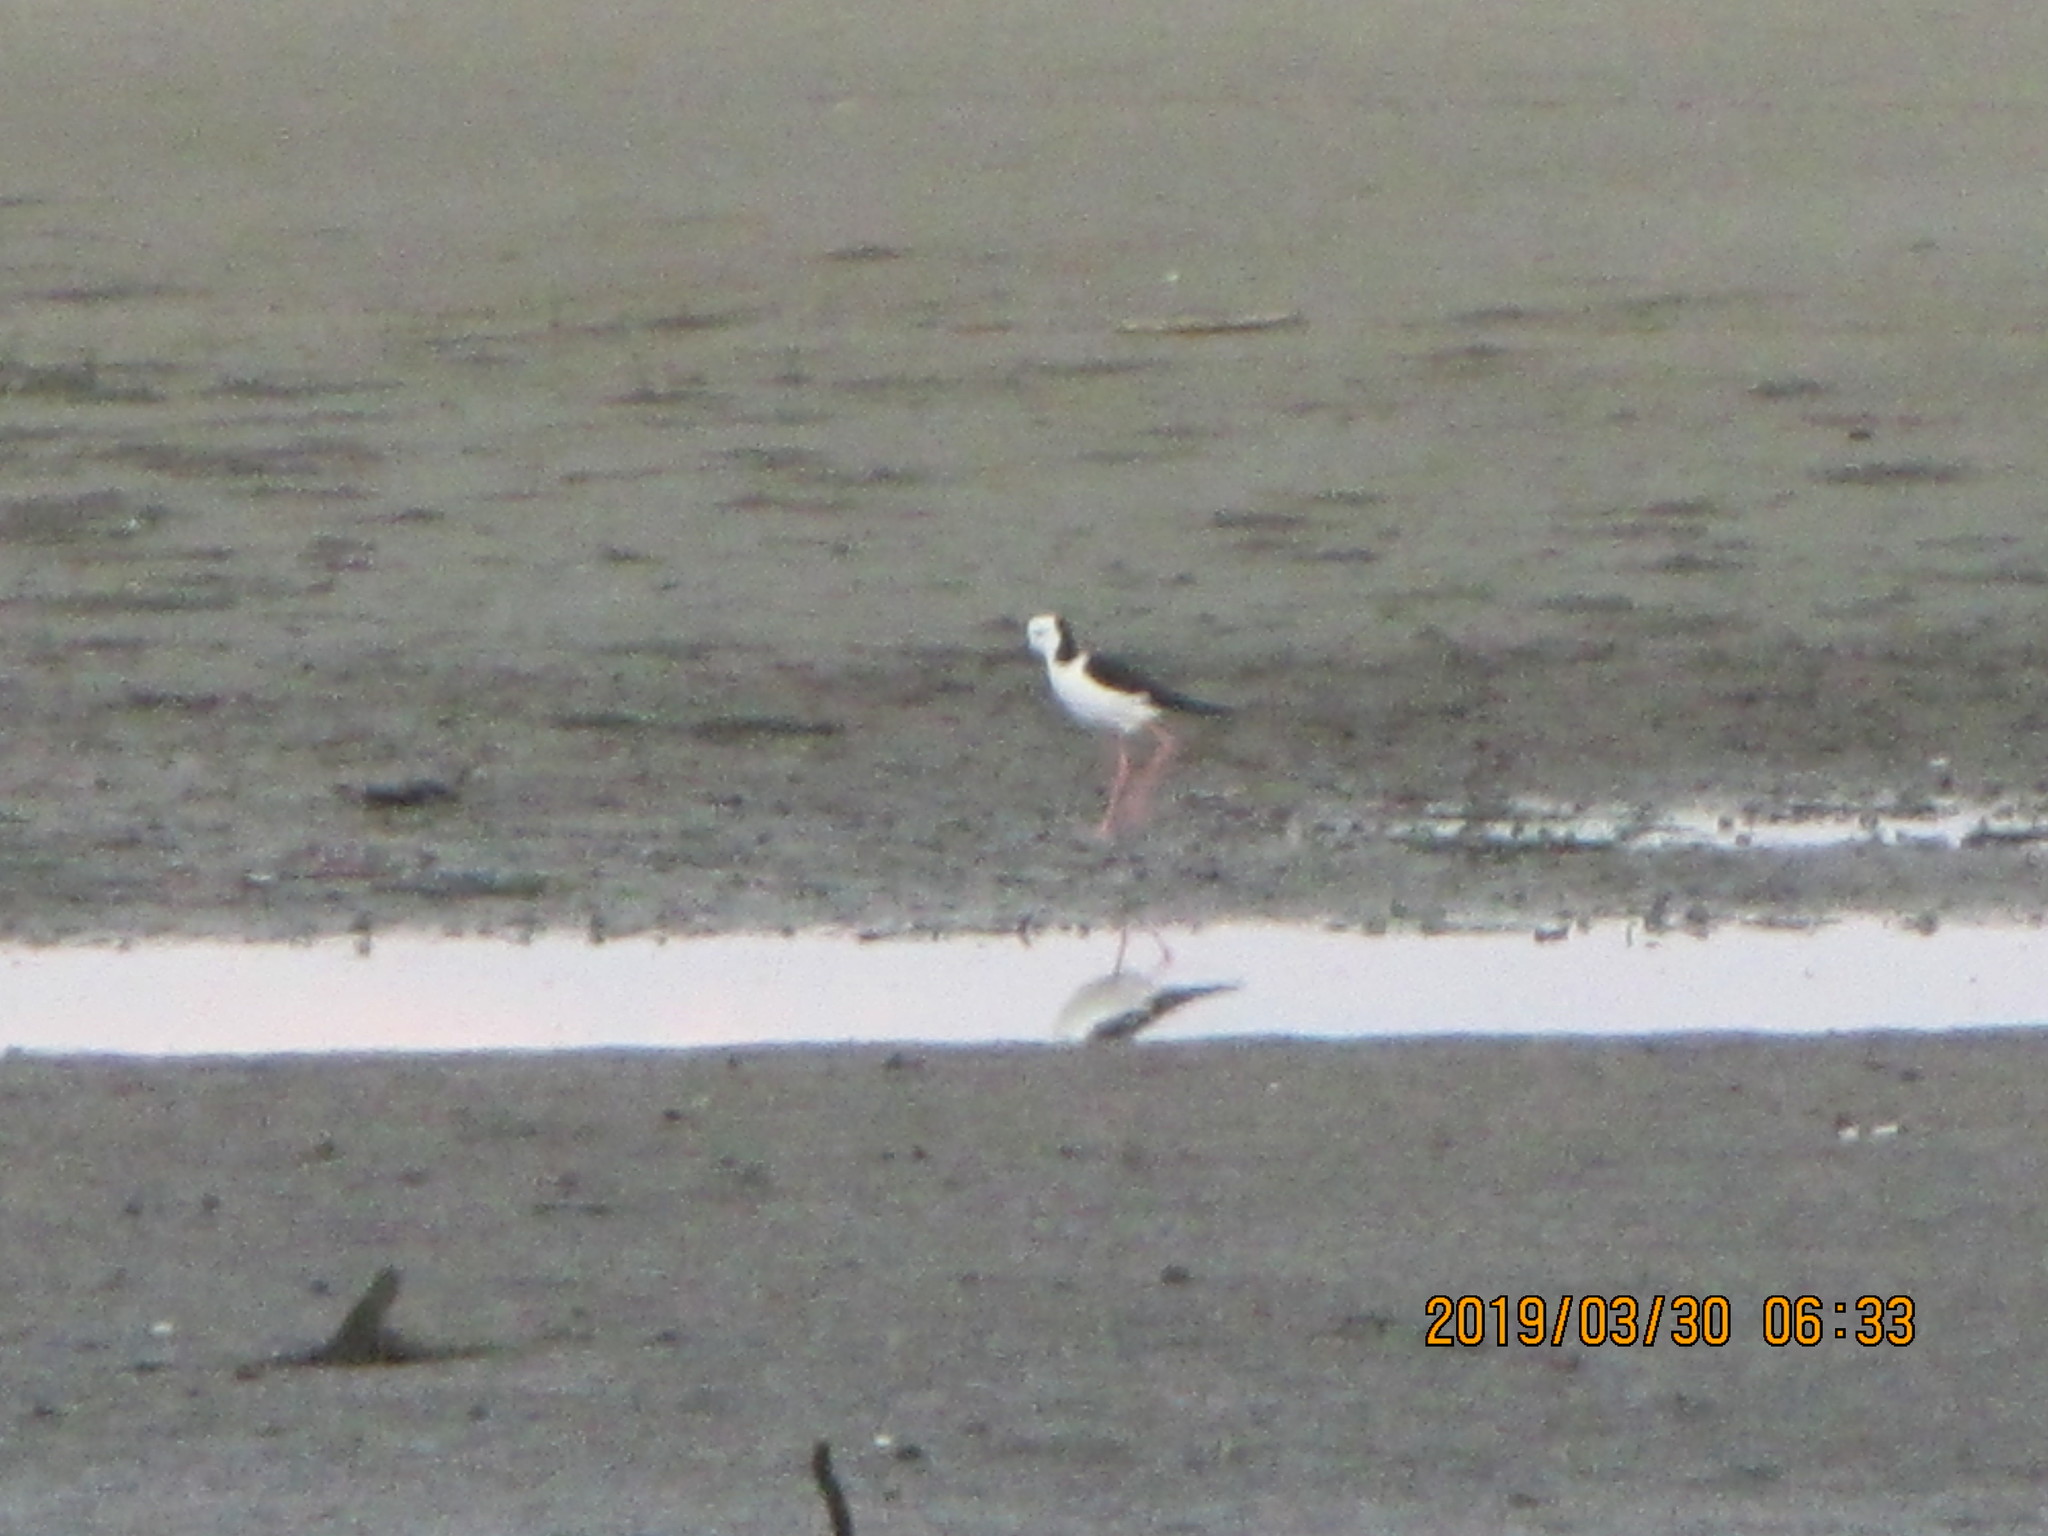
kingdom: Animalia
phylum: Chordata
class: Aves
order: Charadriiformes
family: Recurvirostridae
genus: Himantopus
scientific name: Himantopus leucocephalus
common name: White-headed stilt
